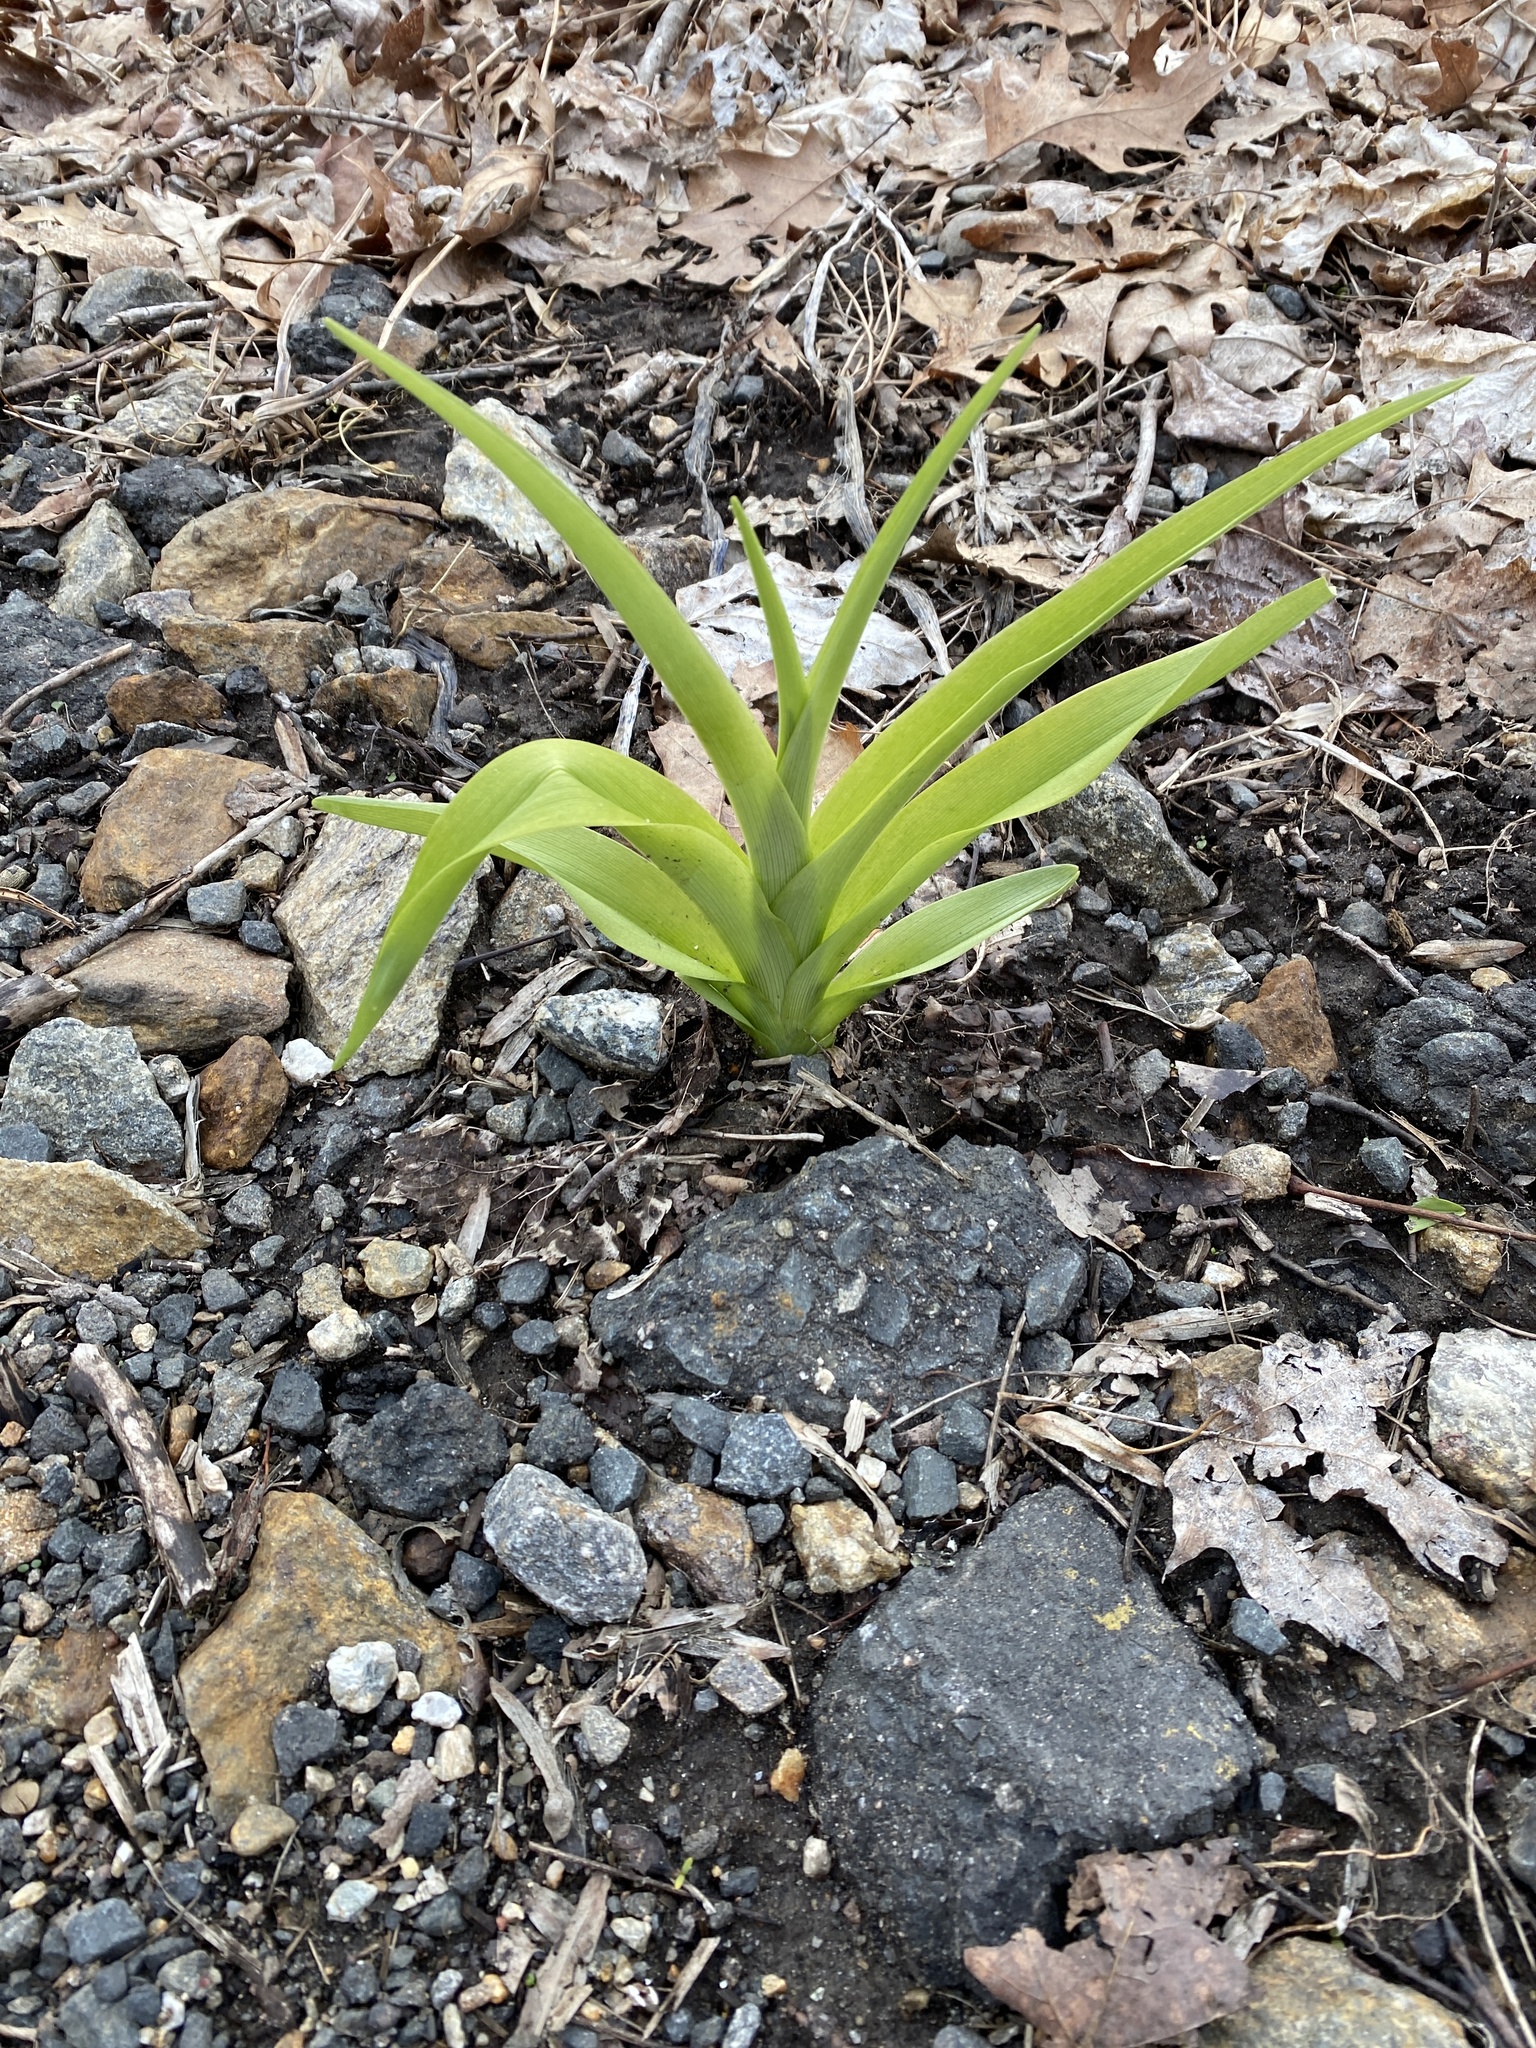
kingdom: Plantae
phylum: Tracheophyta
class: Liliopsida
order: Asparagales
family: Asphodelaceae
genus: Hemerocallis
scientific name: Hemerocallis fulva
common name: Orange day-lily
